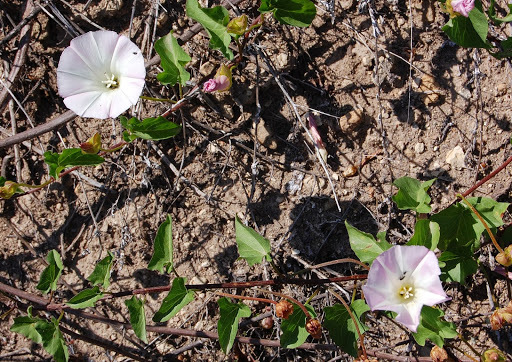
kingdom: Plantae
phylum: Tracheophyta
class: Magnoliopsida
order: Solanales
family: Convolvulaceae
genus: Calystegia
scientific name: Calystegia macrostegia
